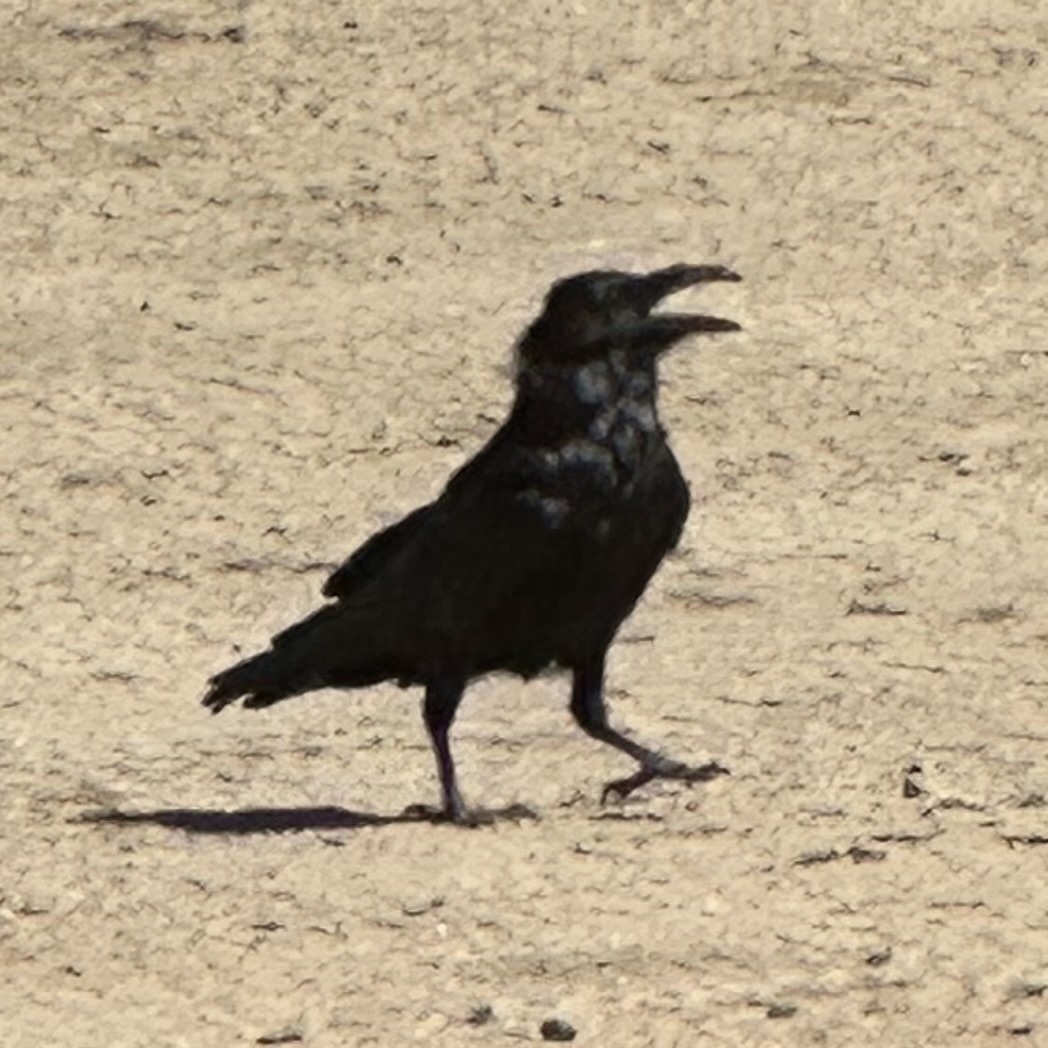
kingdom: Animalia
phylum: Chordata
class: Aves
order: Passeriformes
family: Corvidae
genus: Corvus
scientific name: Corvus corax
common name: Common raven
